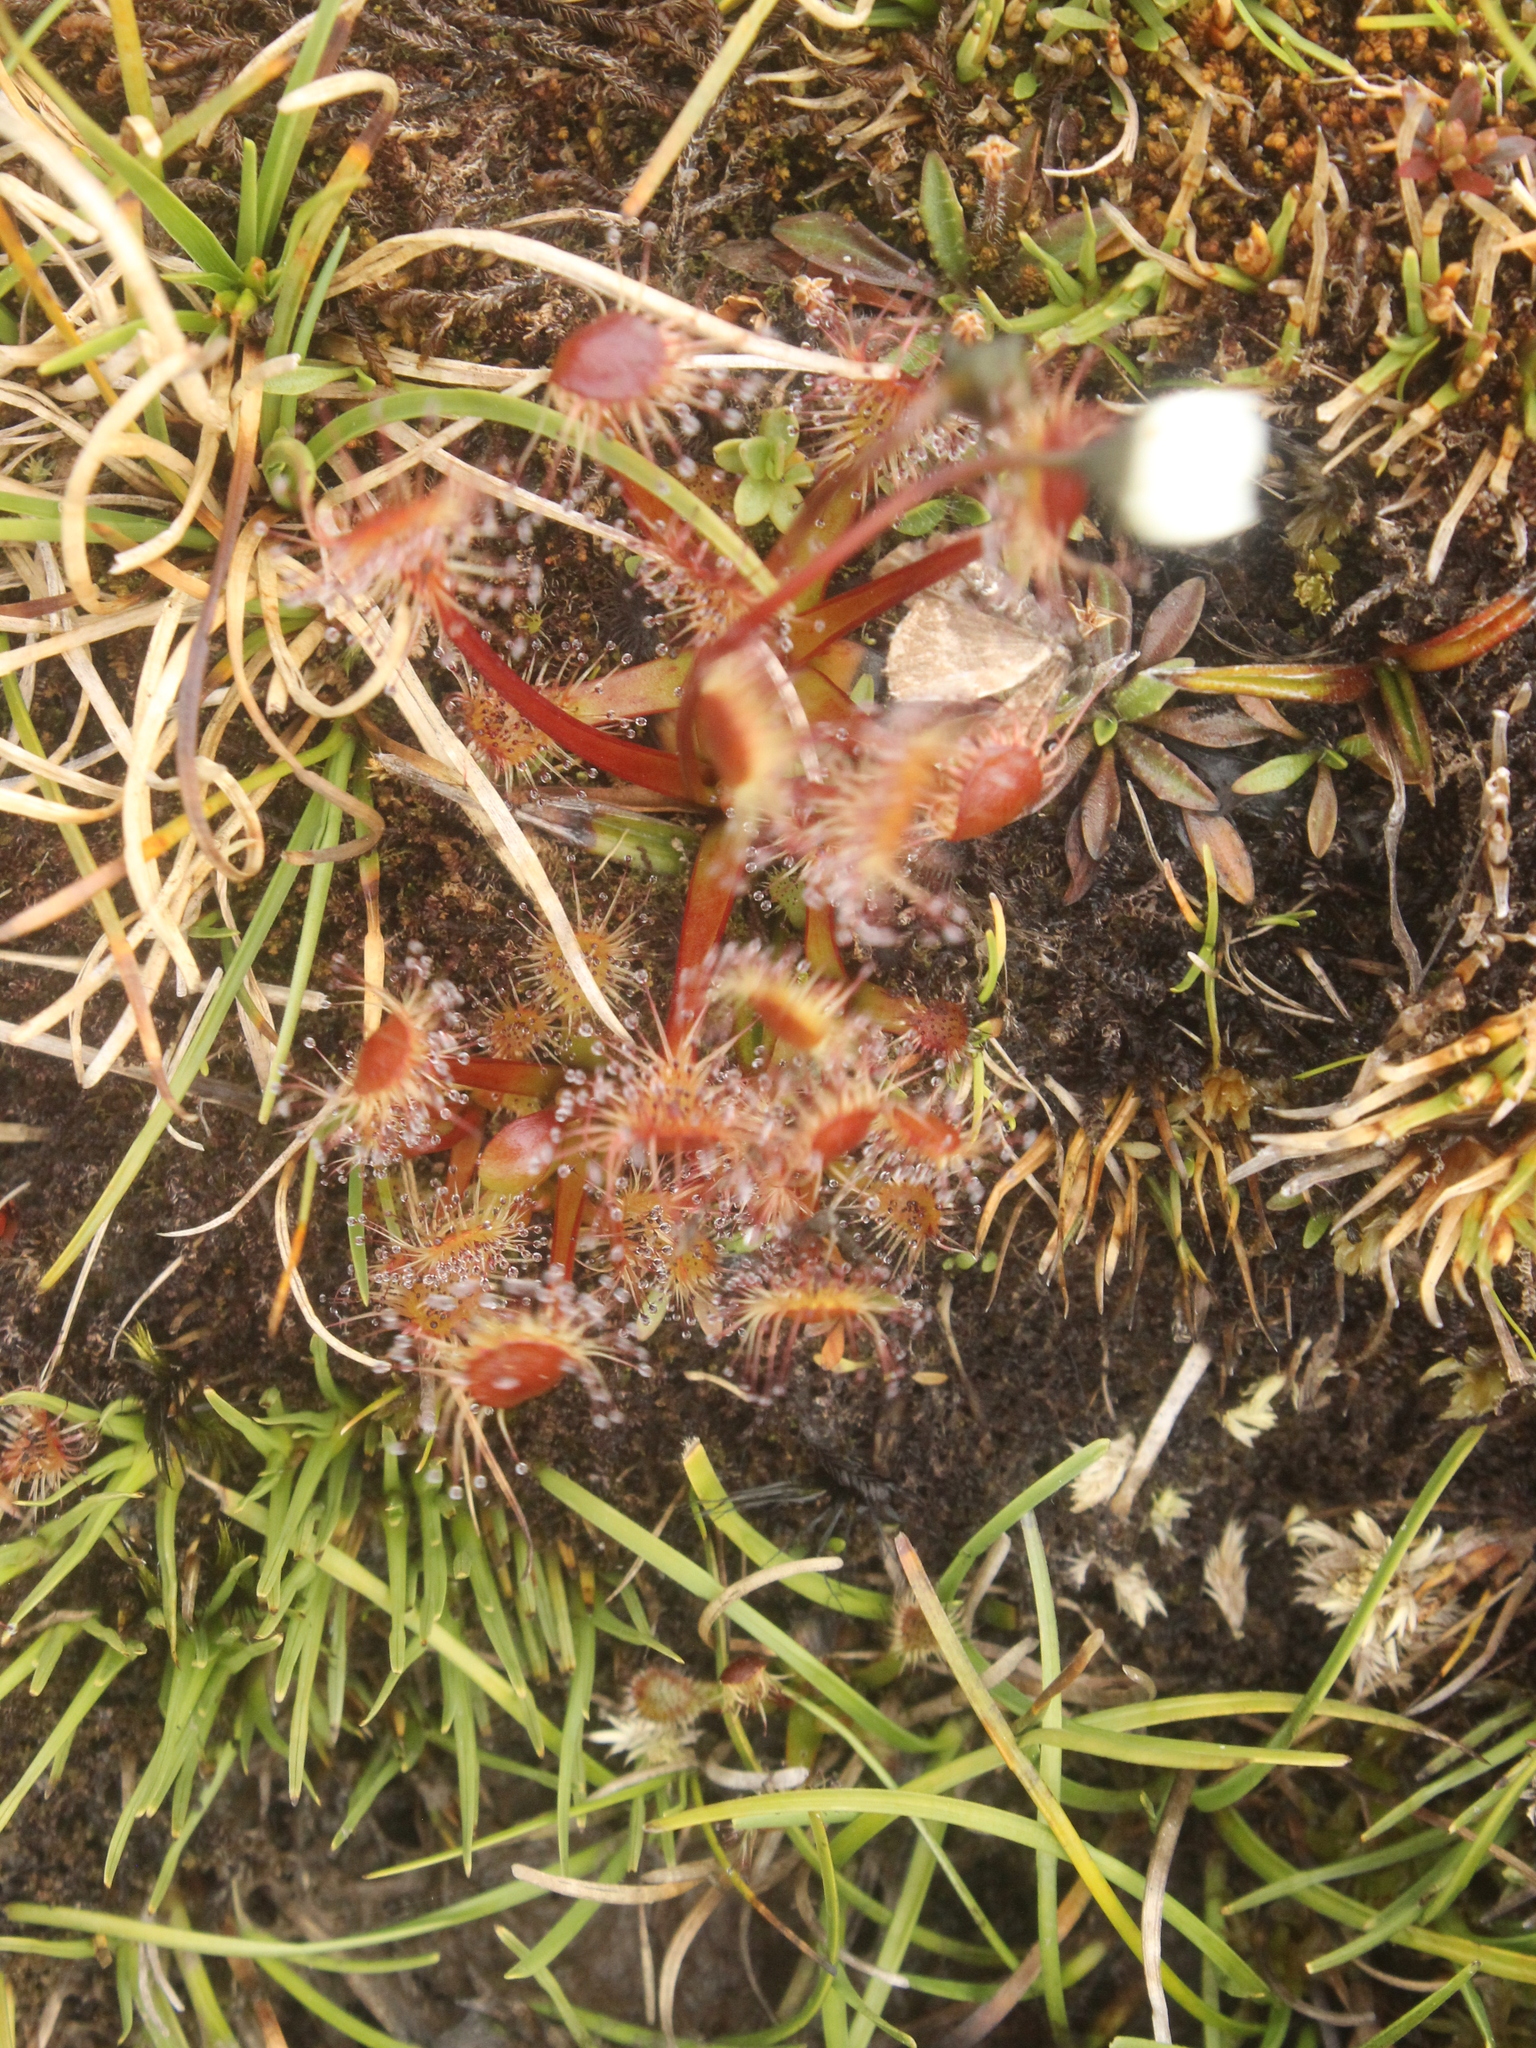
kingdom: Plantae
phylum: Tracheophyta
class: Magnoliopsida
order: Caryophyllales
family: Droseraceae
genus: Drosera
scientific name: Drosera stenopetala
